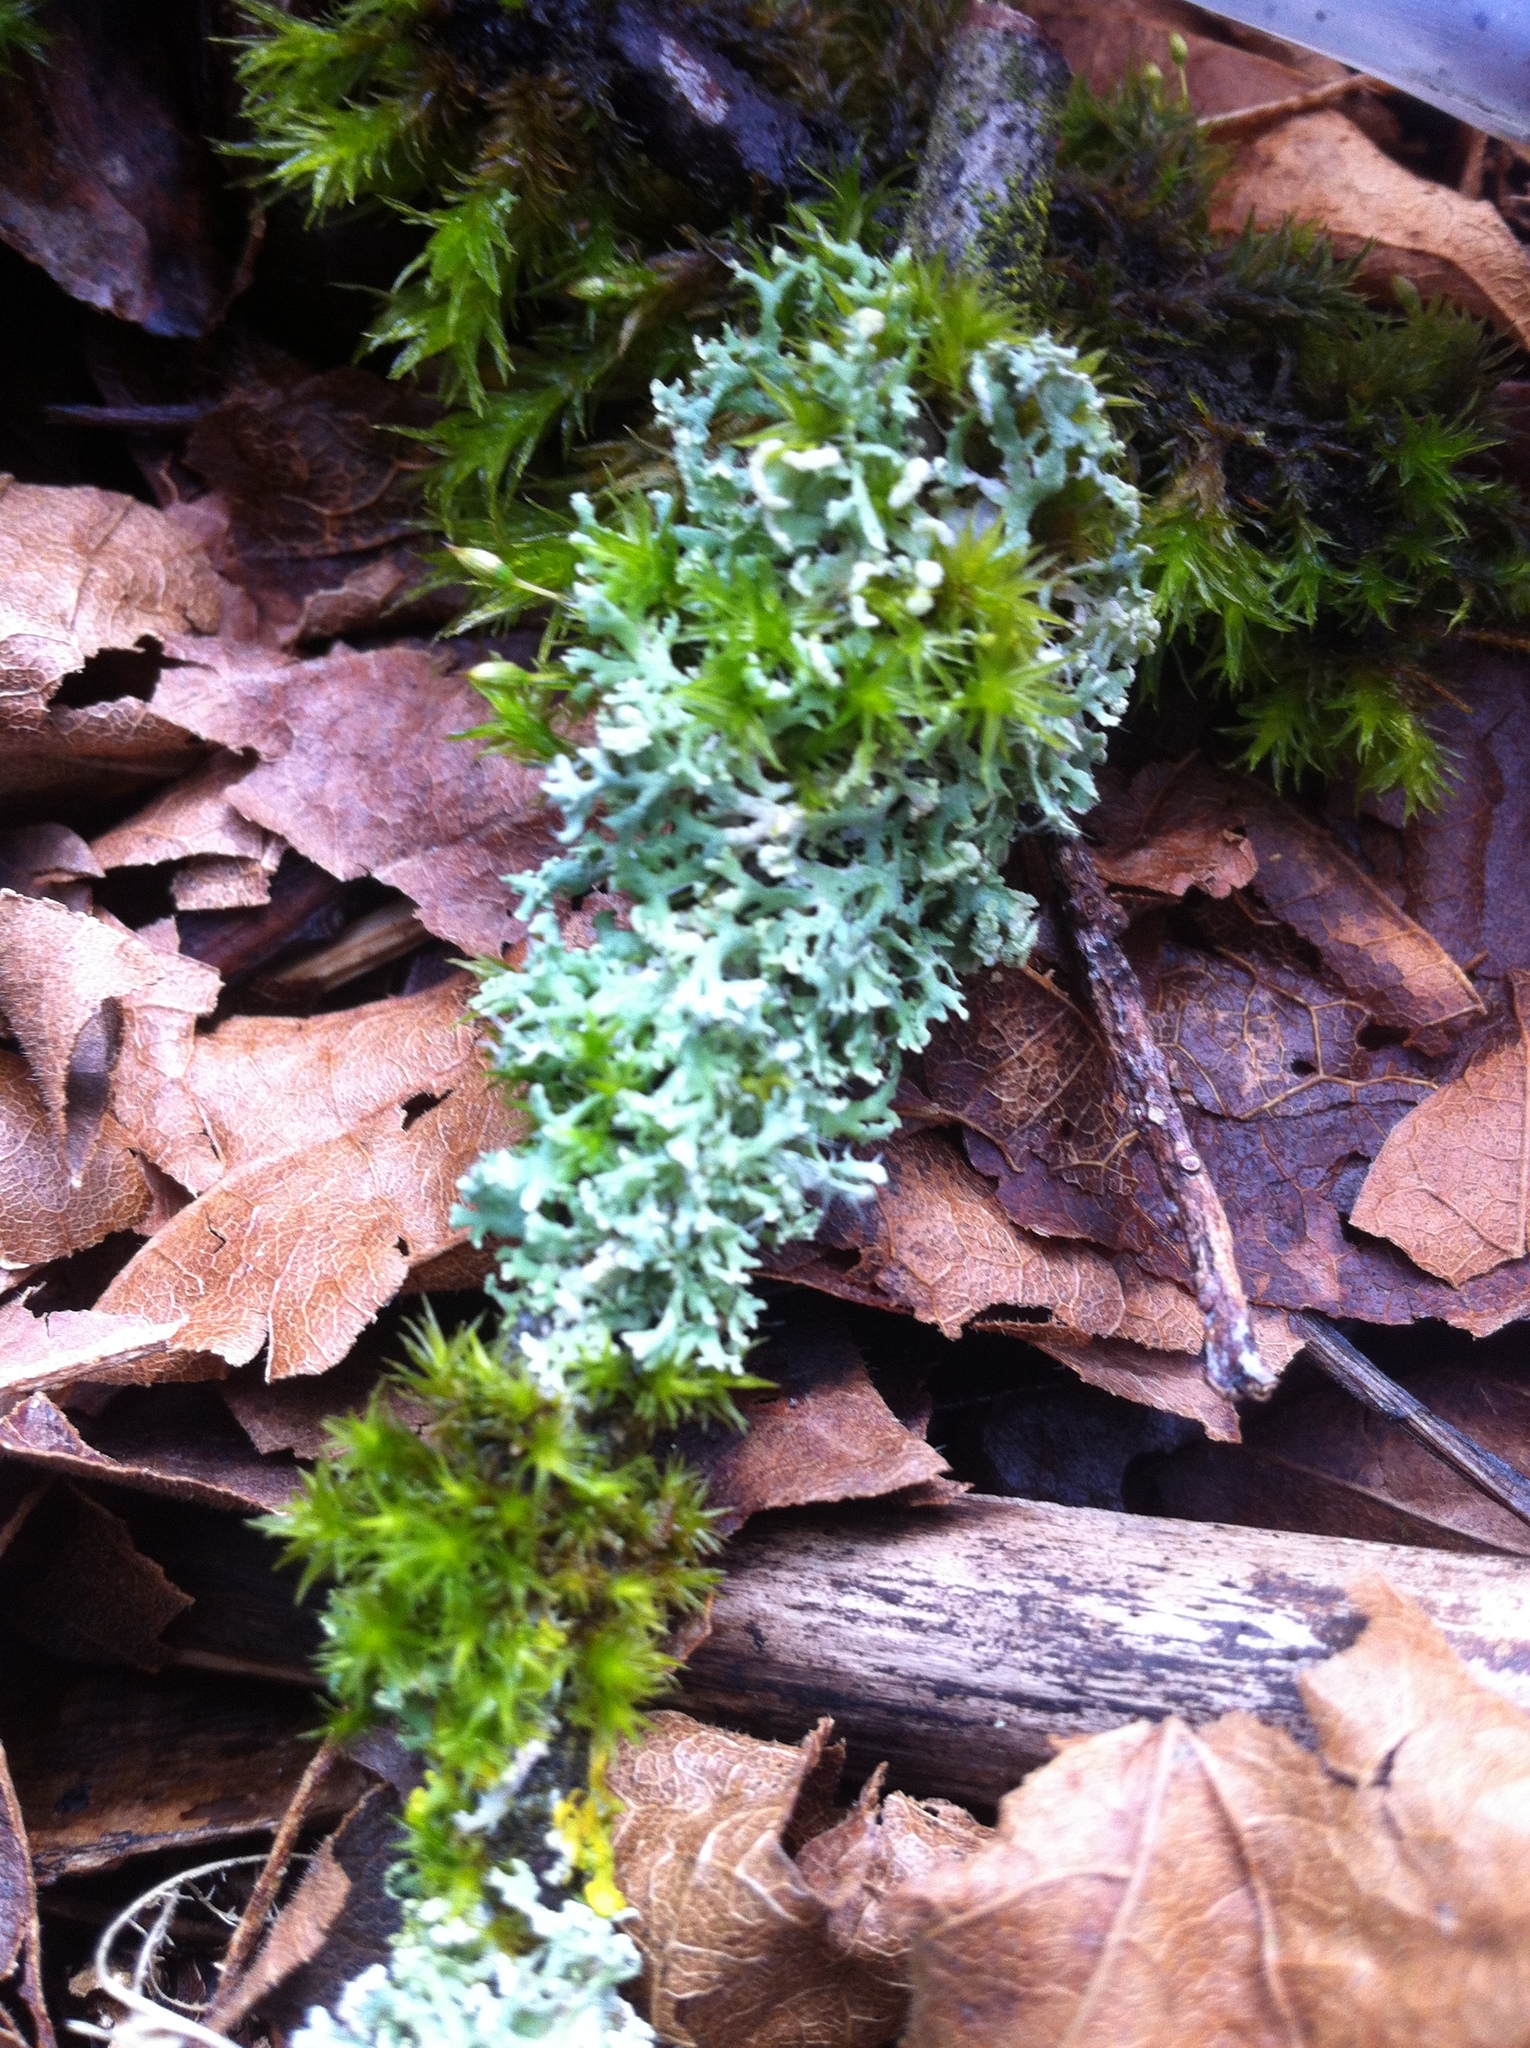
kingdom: Fungi
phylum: Ascomycota
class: Lecanoromycetes
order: Caliciales
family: Physciaceae
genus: Physcia
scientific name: Physcia tenella
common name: Fringed rosette lichen
